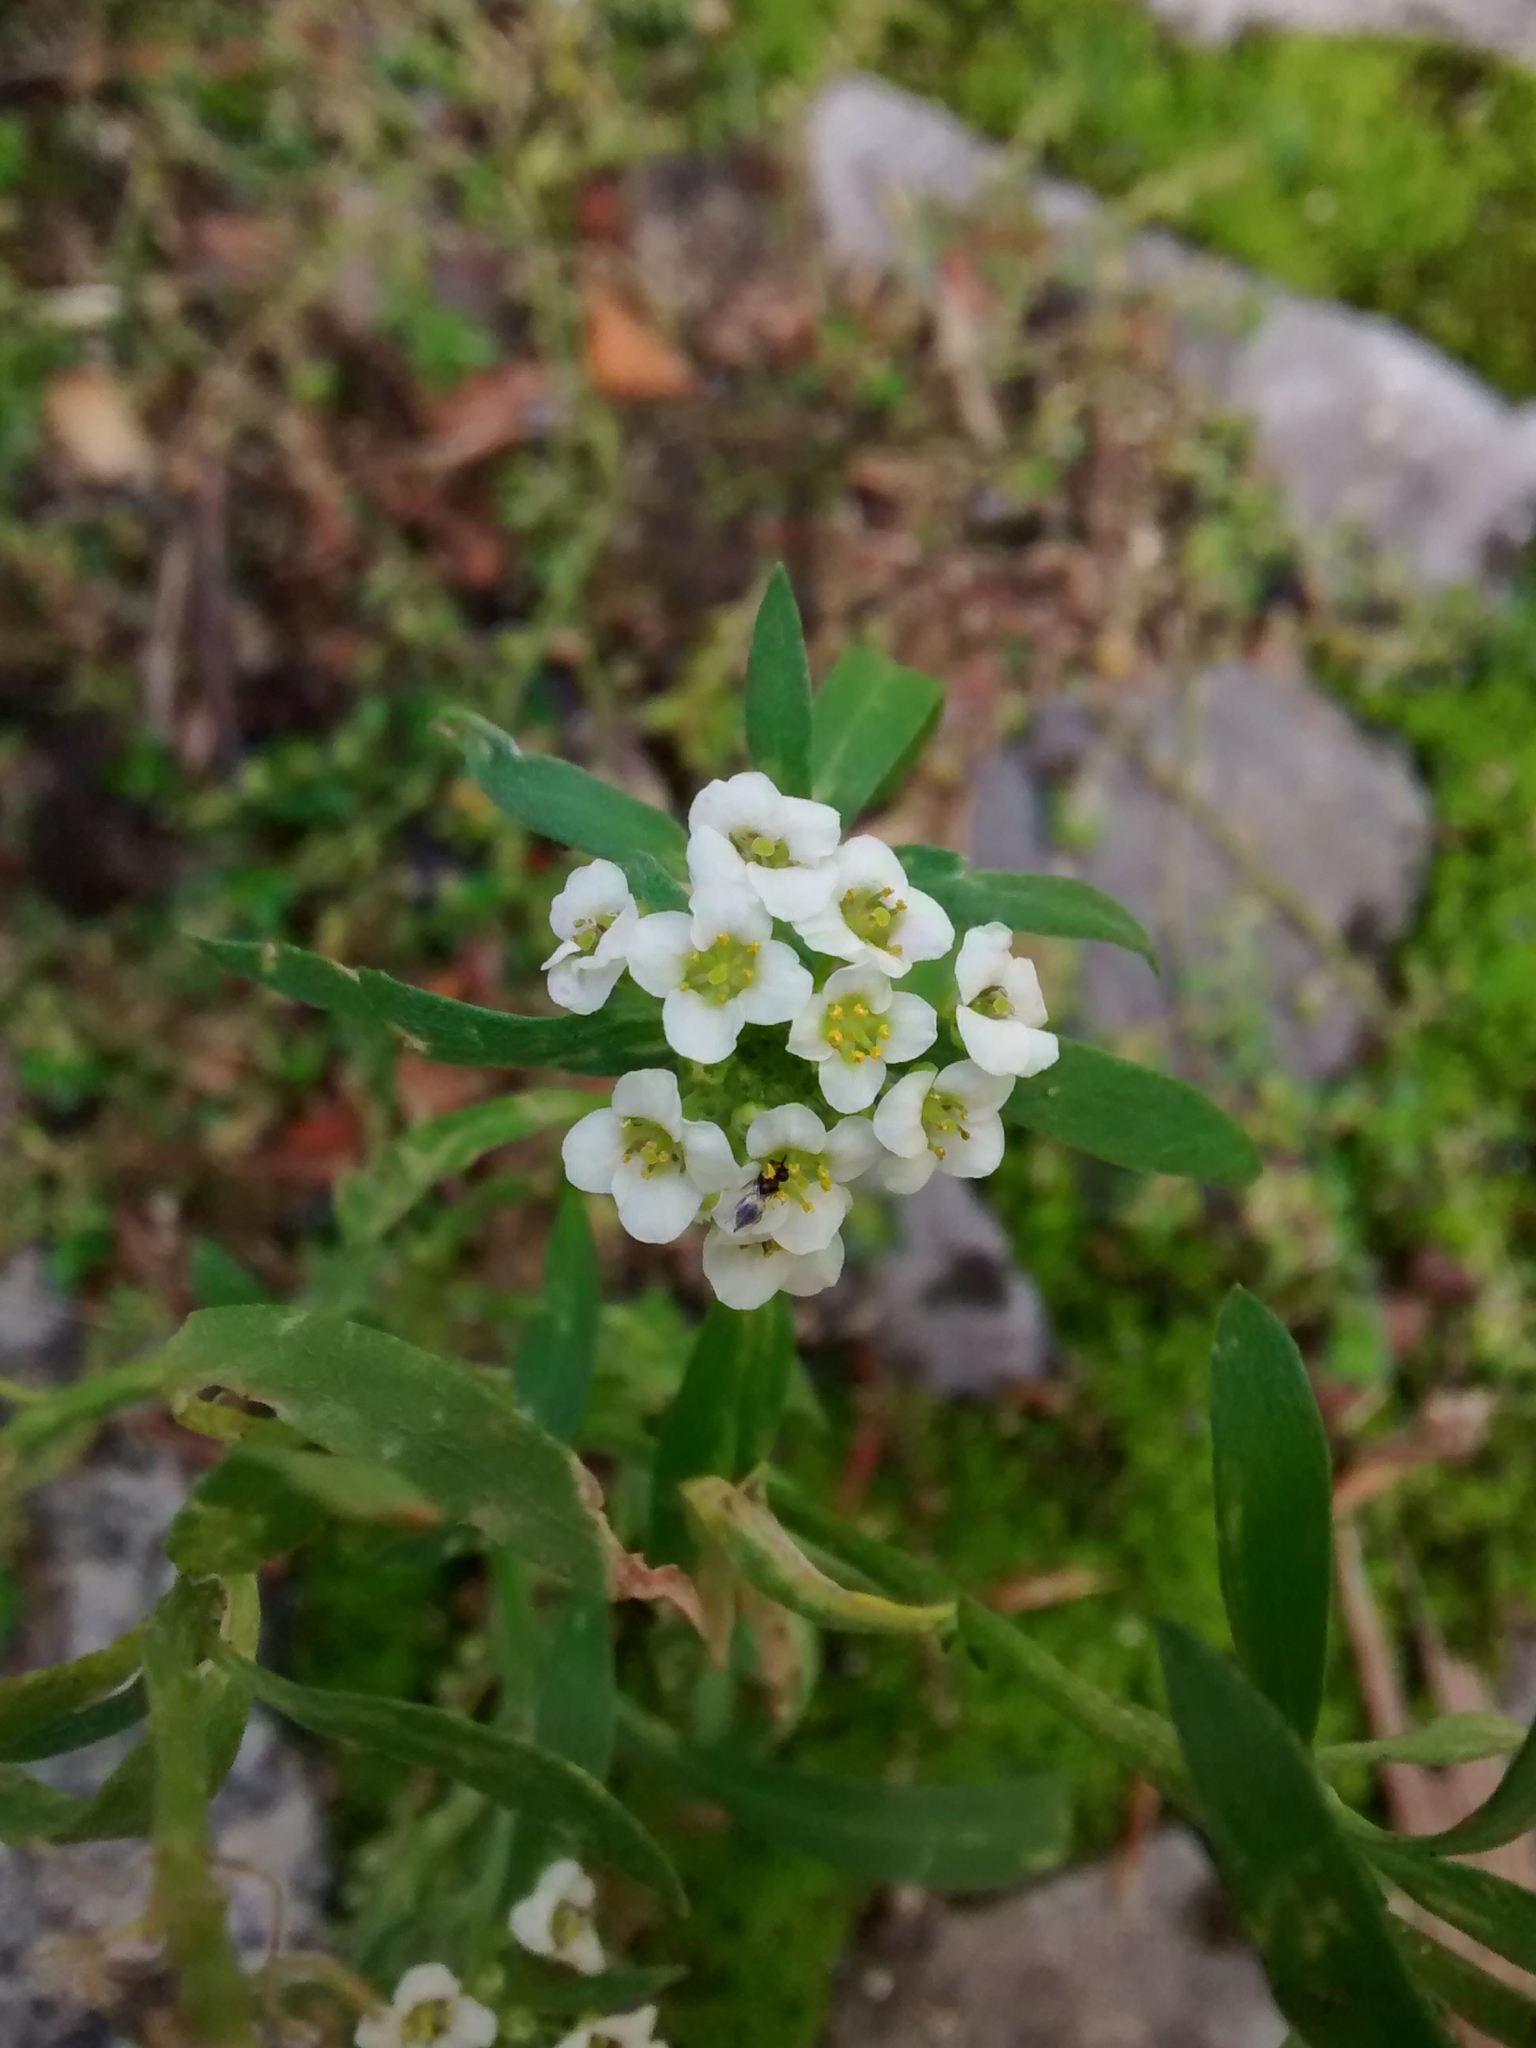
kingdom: Plantae
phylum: Tracheophyta
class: Magnoliopsida
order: Brassicales
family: Brassicaceae
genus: Lobularia
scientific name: Lobularia maritima
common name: Sweet alison
